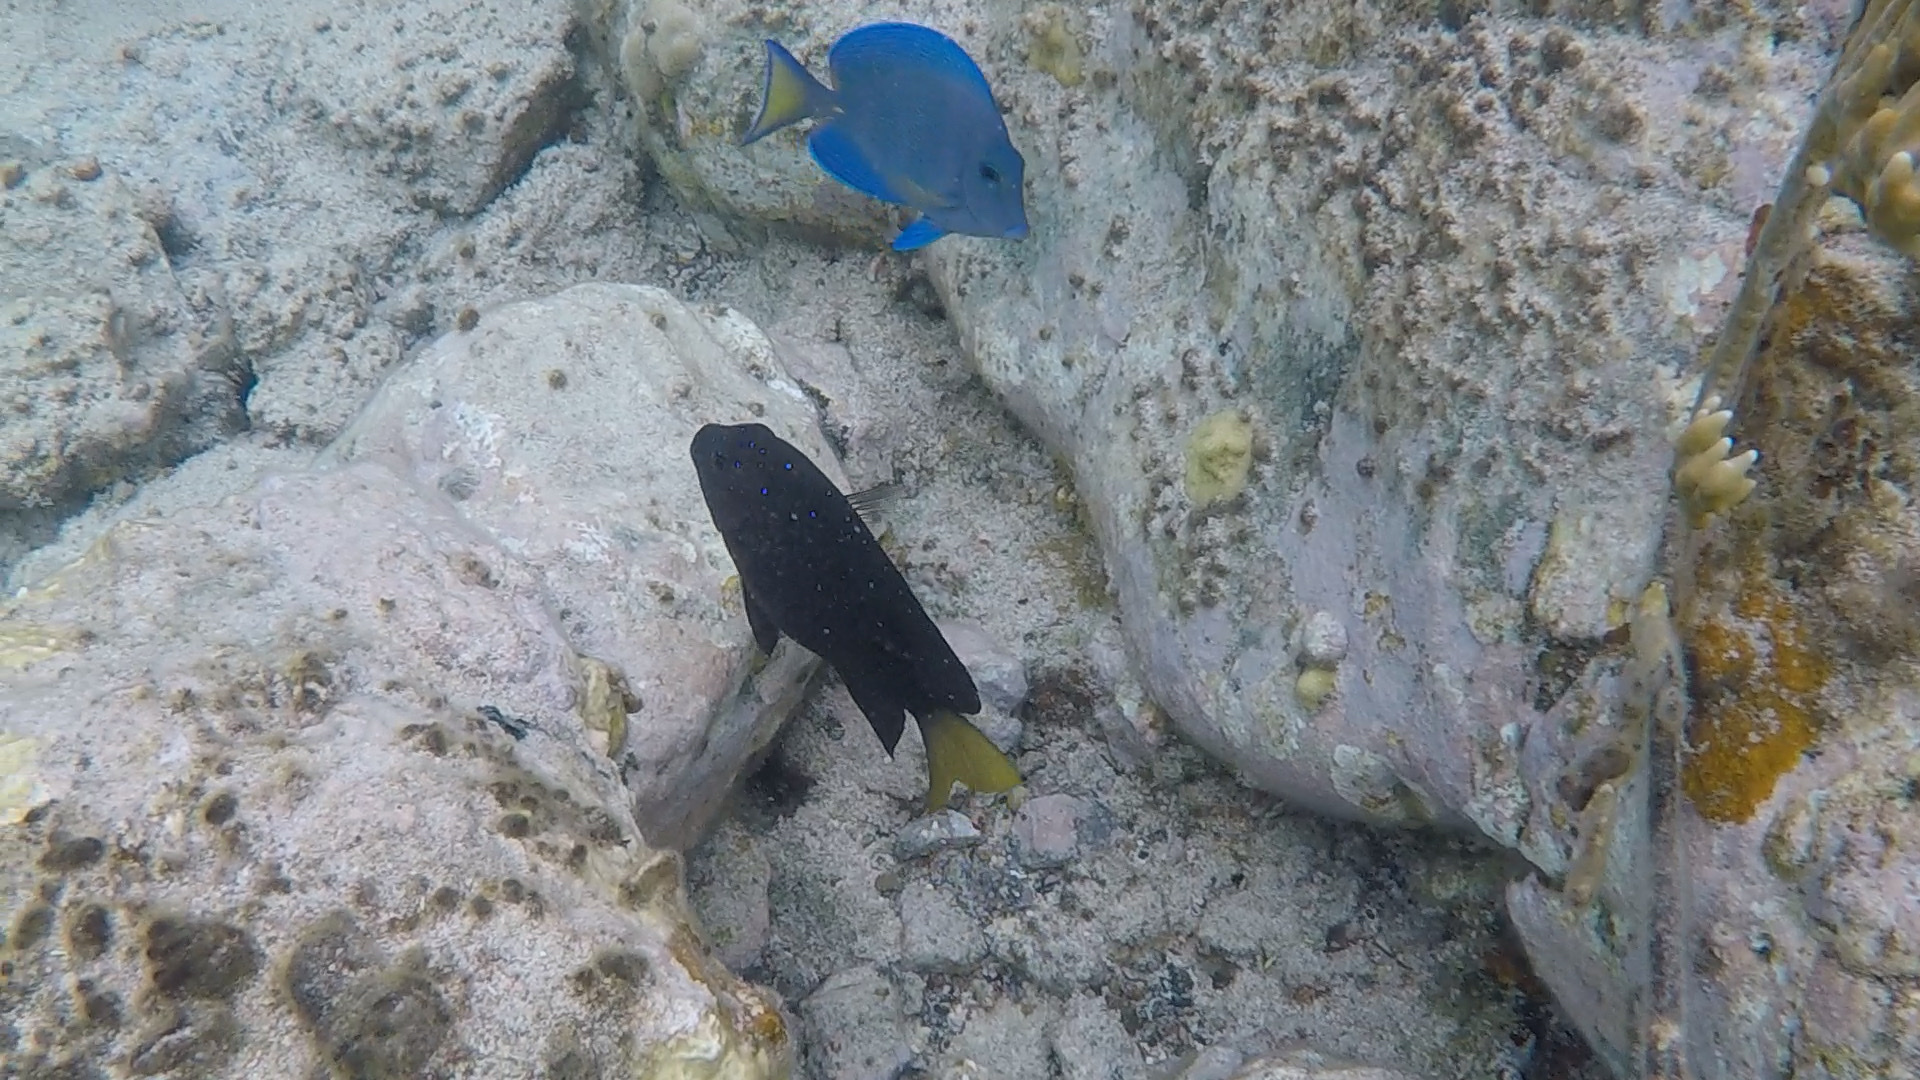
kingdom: Animalia
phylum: Chordata
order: Perciformes
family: Pomacentridae
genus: Microspathodon
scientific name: Microspathodon chrysurus
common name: Yellowtail damselfish
